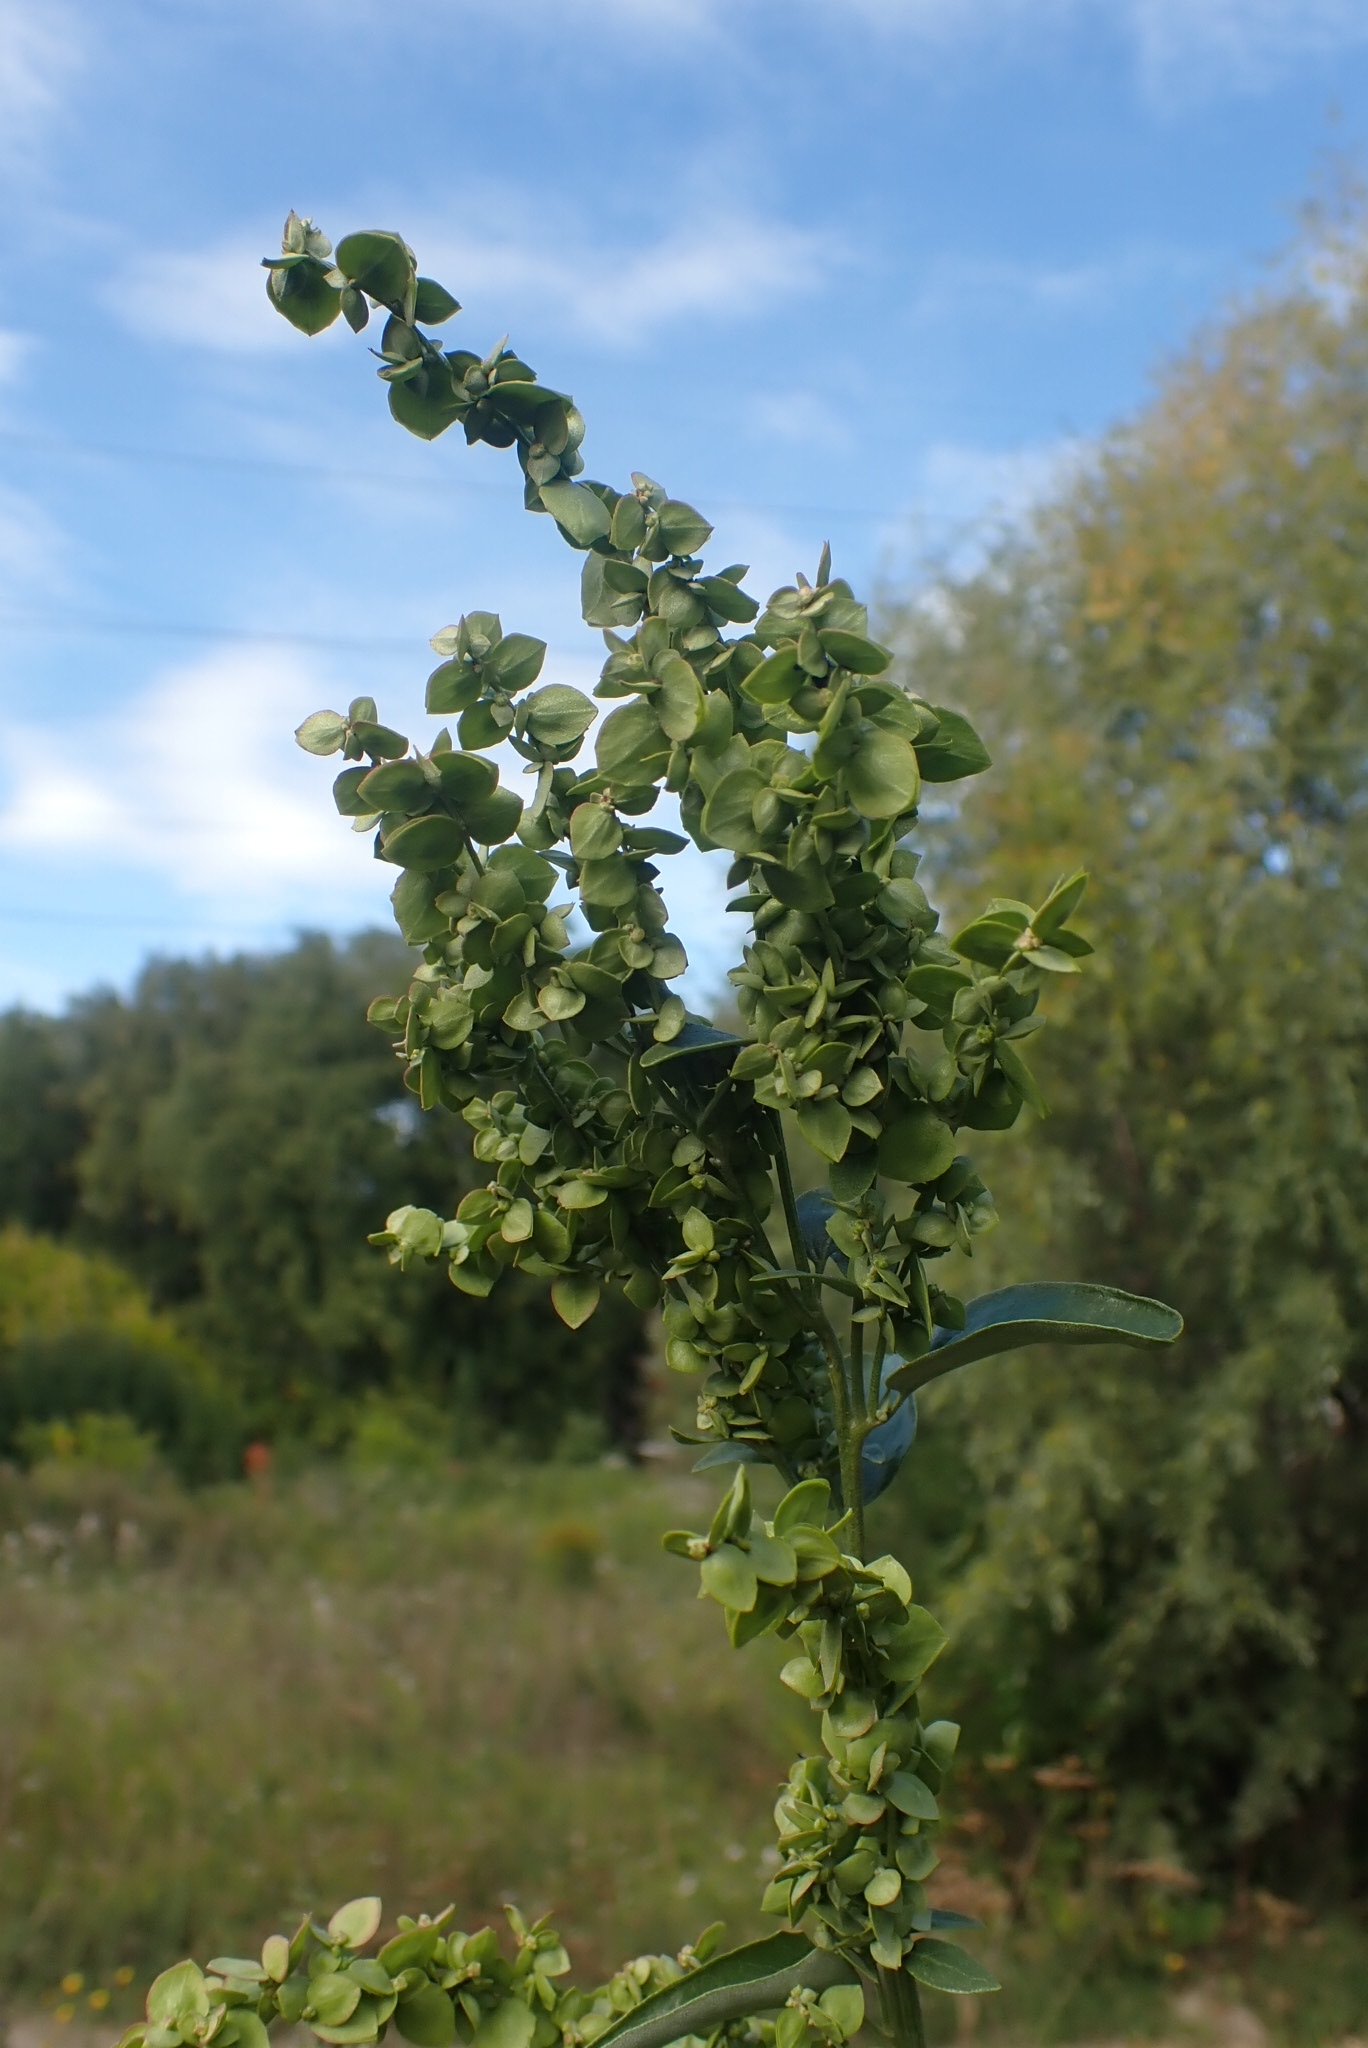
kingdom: Plantae
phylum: Tracheophyta
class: Magnoliopsida
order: Caryophyllales
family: Amaranthaceae
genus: Atriplex
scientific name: Atriplex sagittata
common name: Purple orache
